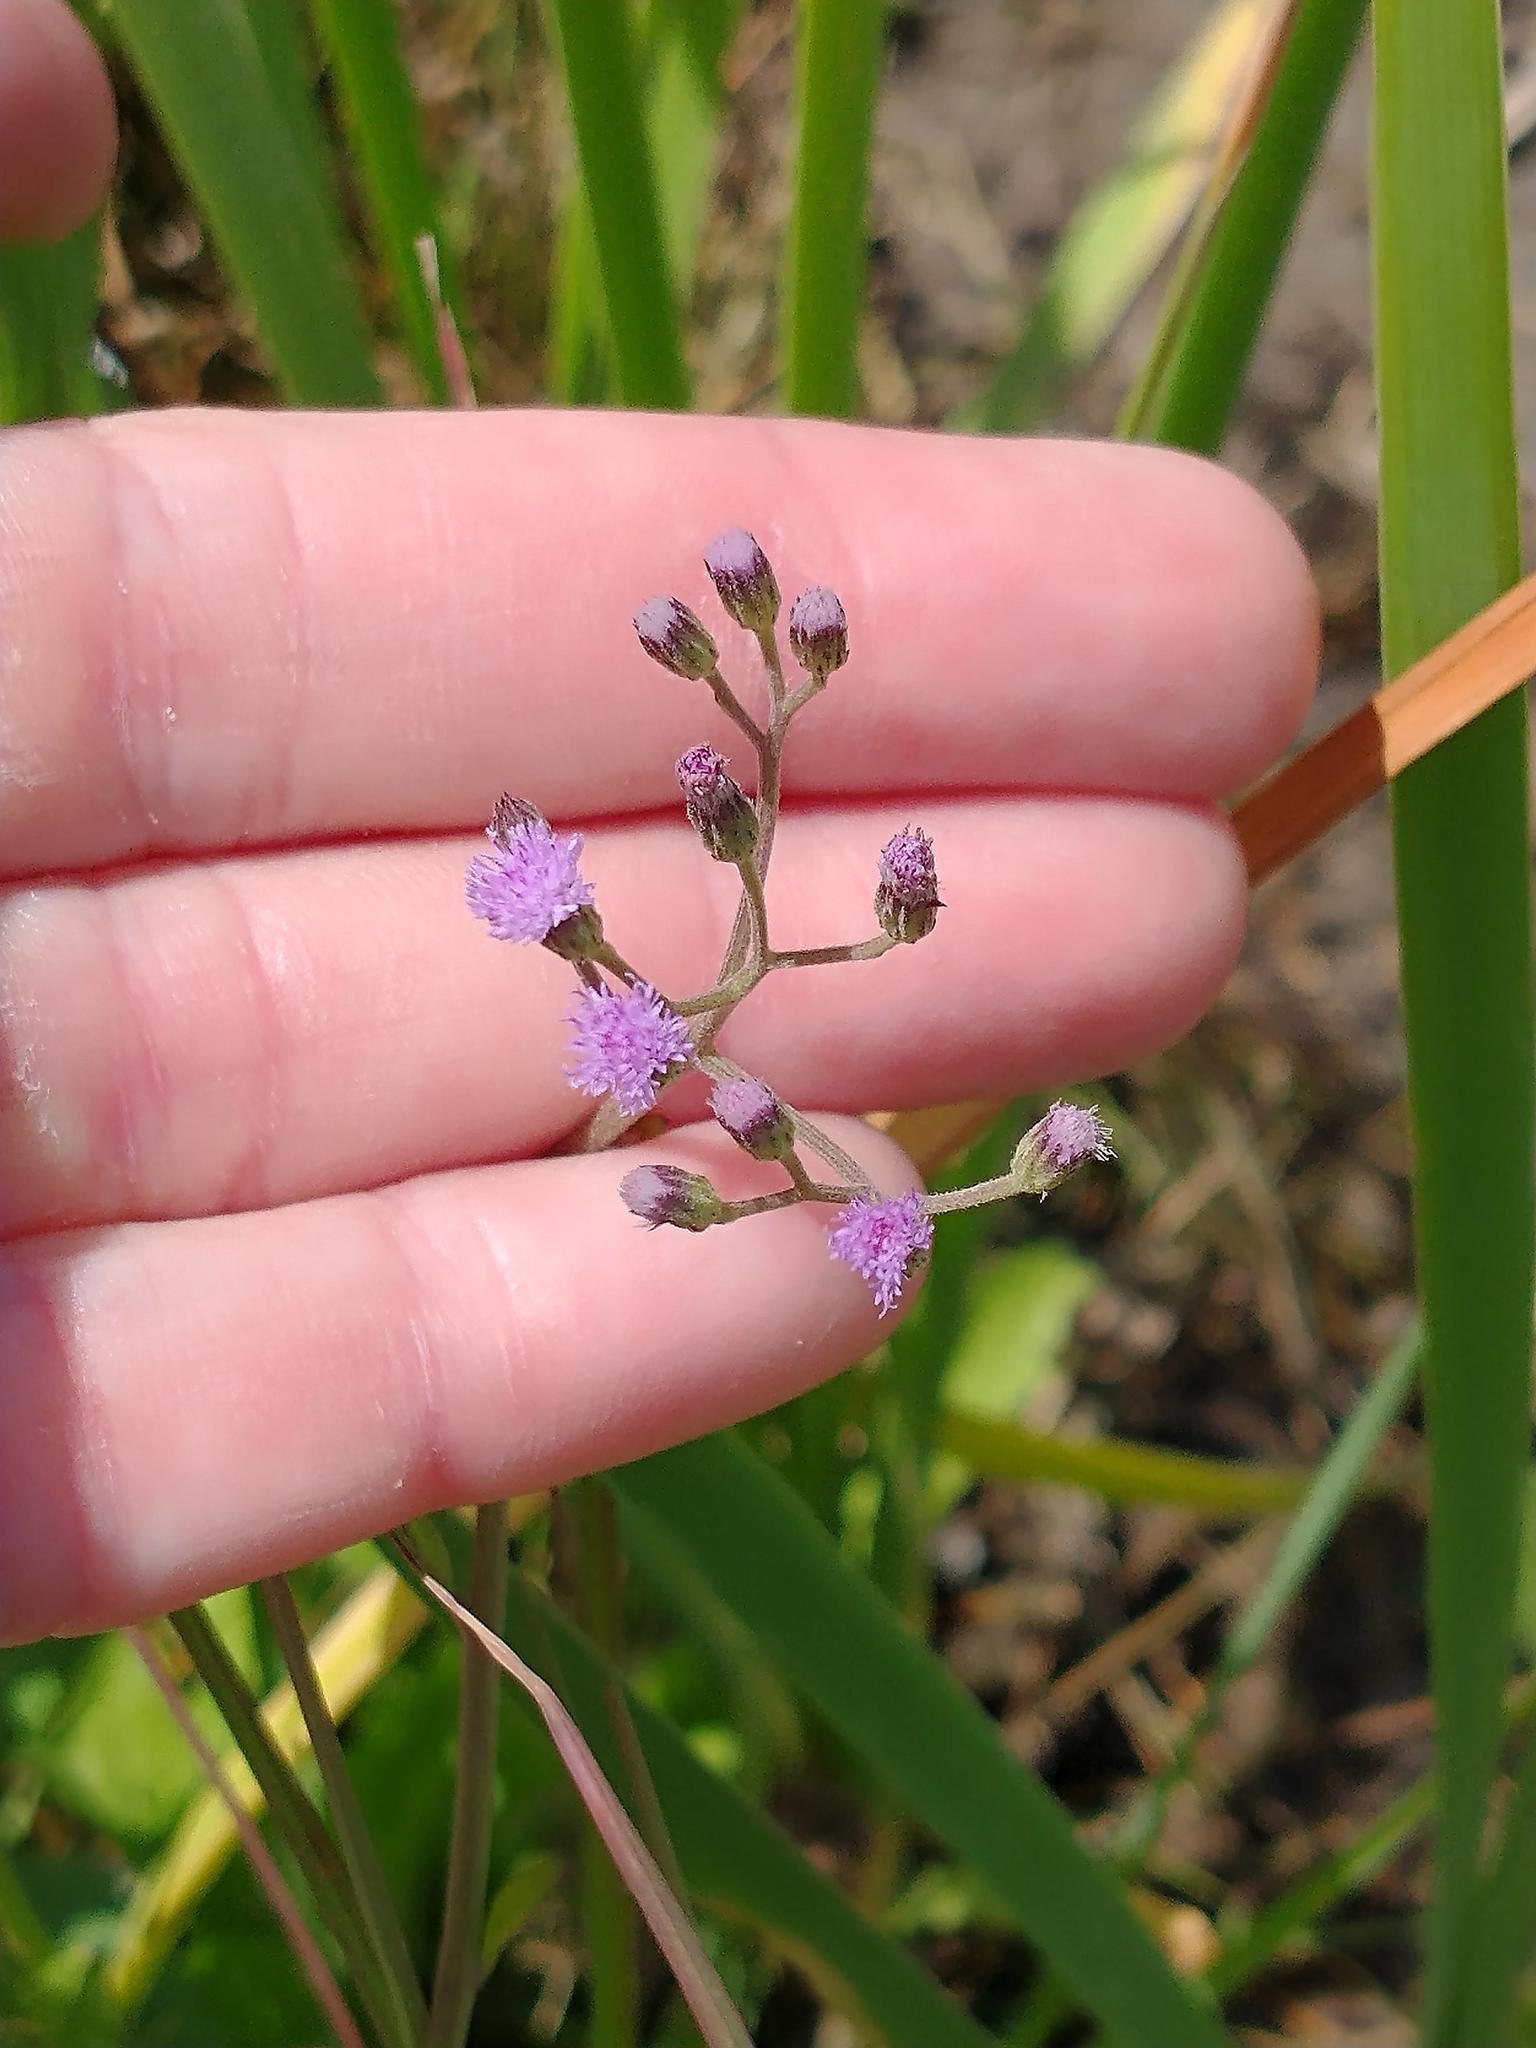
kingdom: Plantae
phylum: Tracheophyta
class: Magnoliopsida
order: Asterales
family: Asteraceae
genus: Cyanthillium
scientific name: Cyanthillium cinereum
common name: Little ironweed
